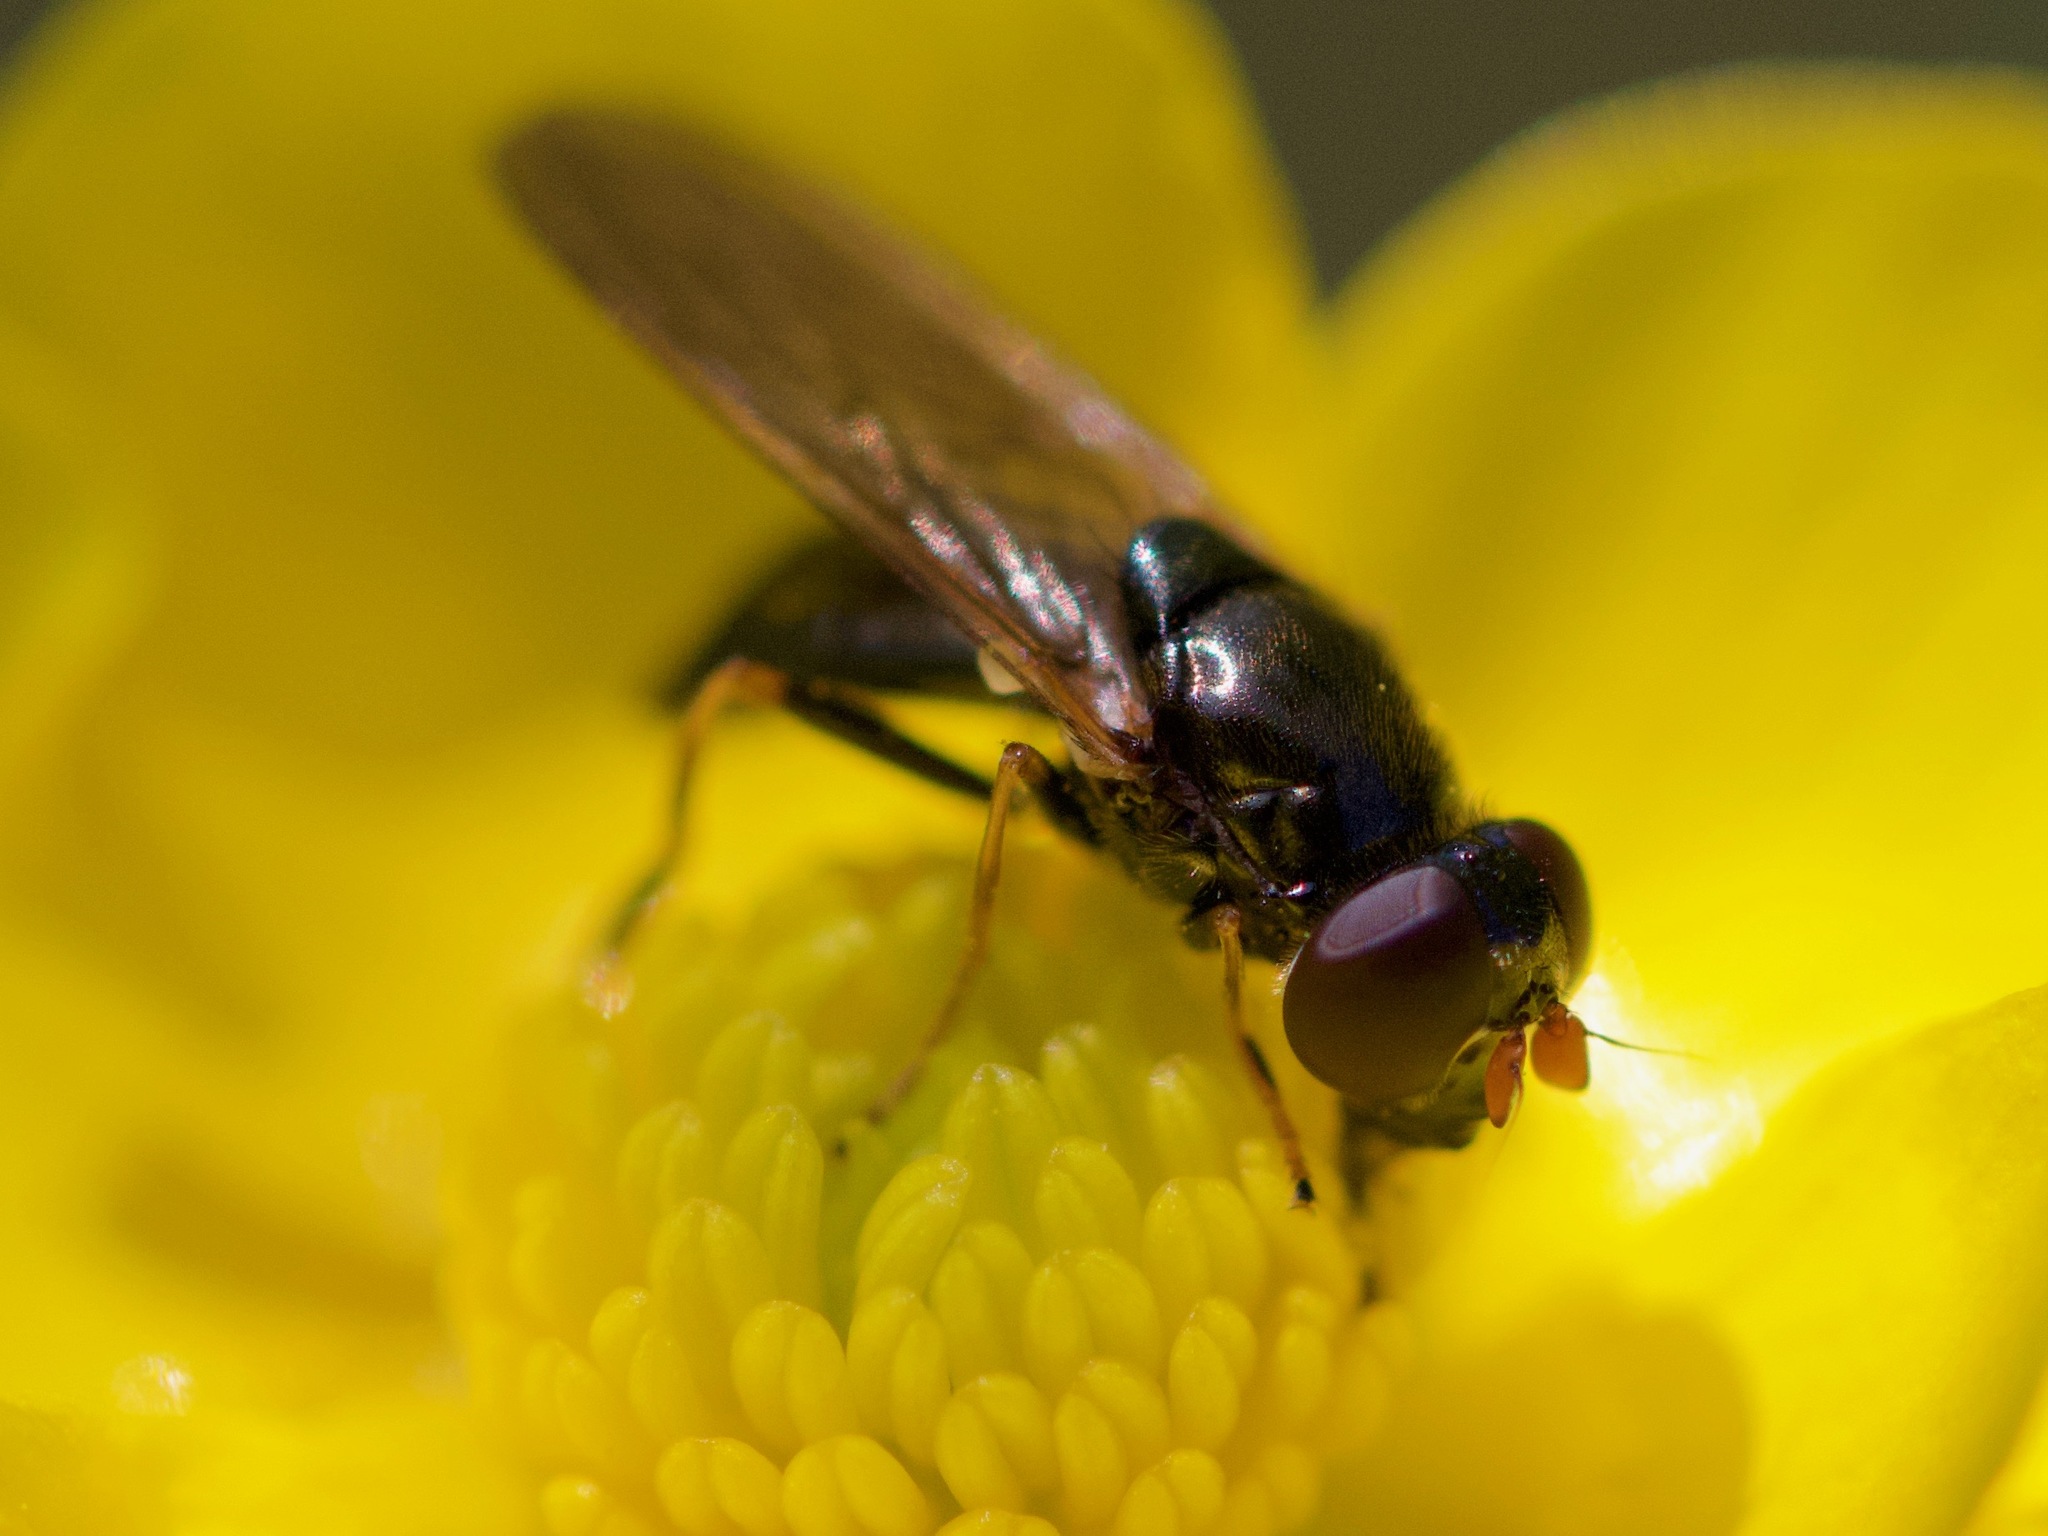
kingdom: Animalia
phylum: Arthropoda
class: Insecta
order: Diptera
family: Syrphidae
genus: Cheilosia
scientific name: Cheilosia pagana
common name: Hover fly
